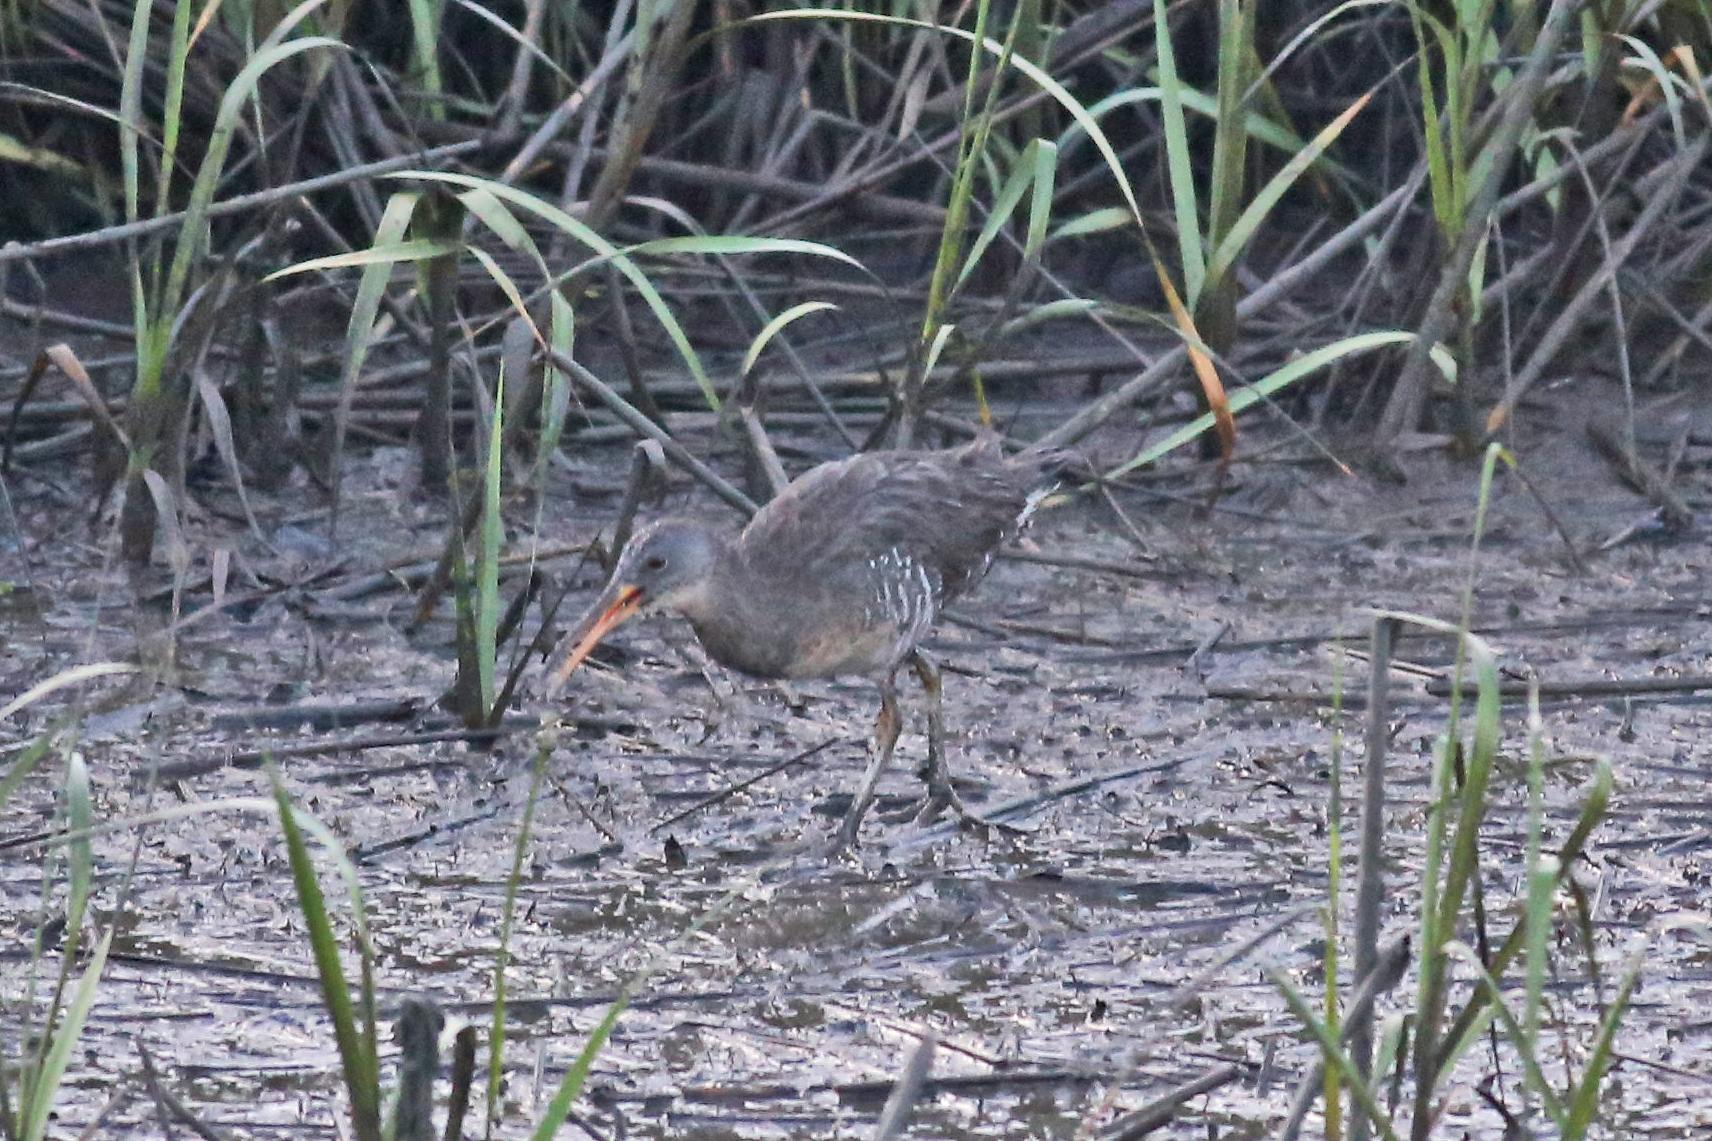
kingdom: Animalia
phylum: Chordata
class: Aves
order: Gruiformes
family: Rallidae
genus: Rallus
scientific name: Rallus crepitans
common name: Clapper rail
